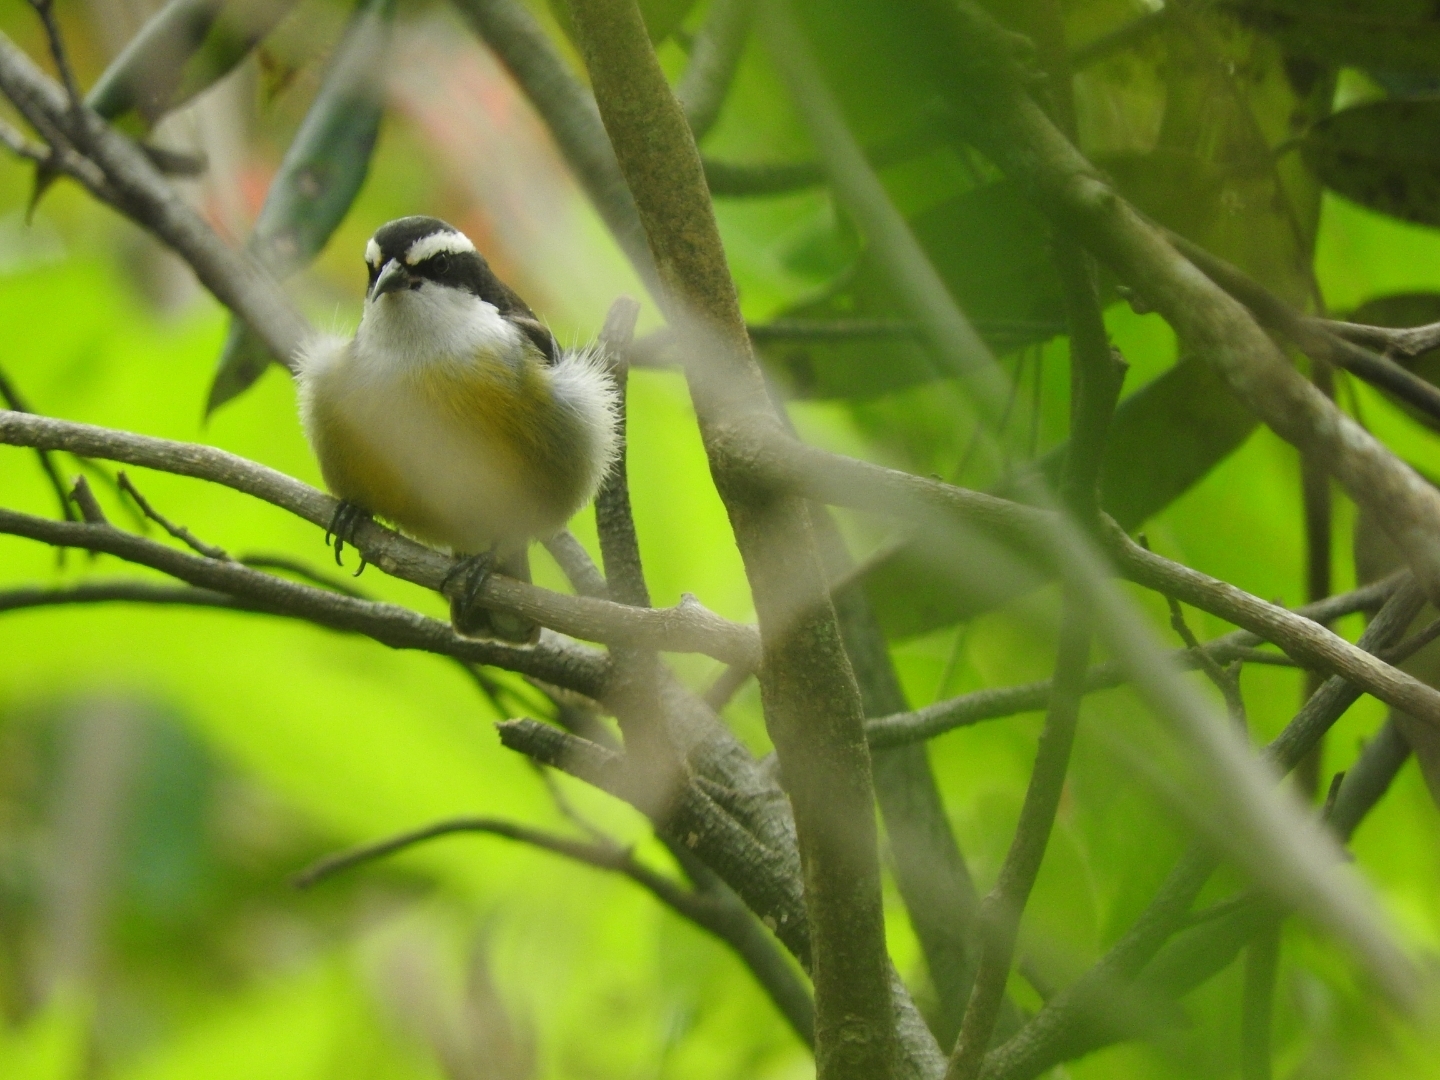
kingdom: Animalia
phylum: Chordata
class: Aves
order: Passeriformes
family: Thraupidae
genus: Coereba
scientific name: Coereba flaveola
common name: Bananaquit
